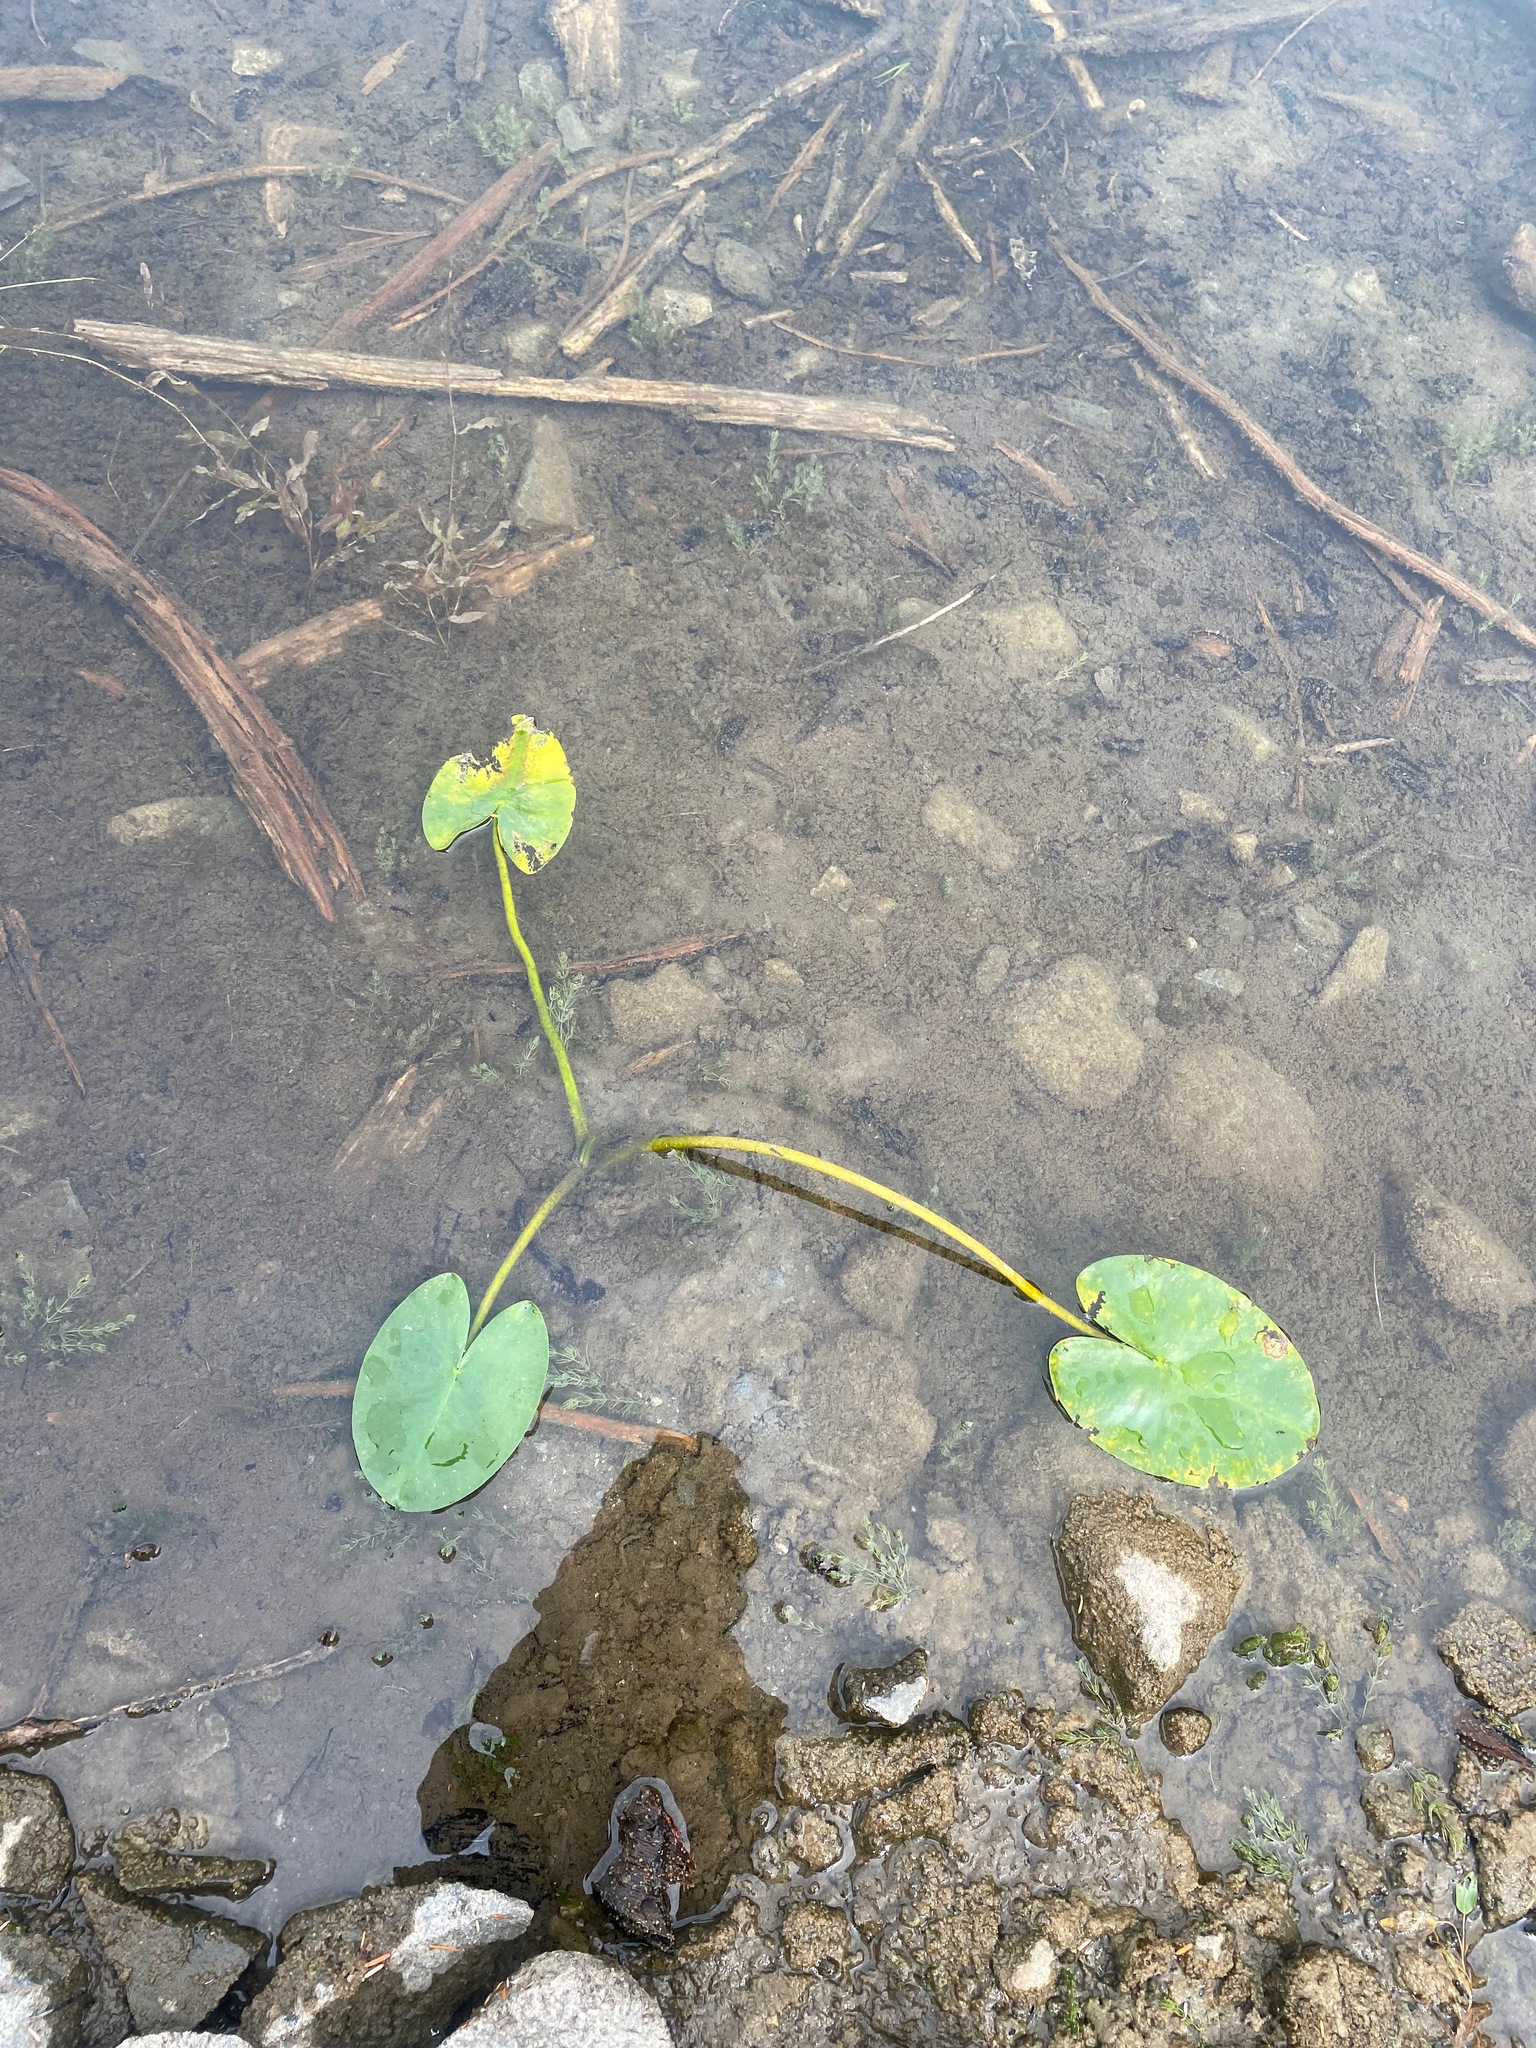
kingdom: Plantae
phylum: Tracheophyta
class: Magnoliopsida
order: Nymphaeales
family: Nymphaeaceae
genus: Nuphar
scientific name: Nuphar polysepala
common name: Rocky mountain cow-lily
